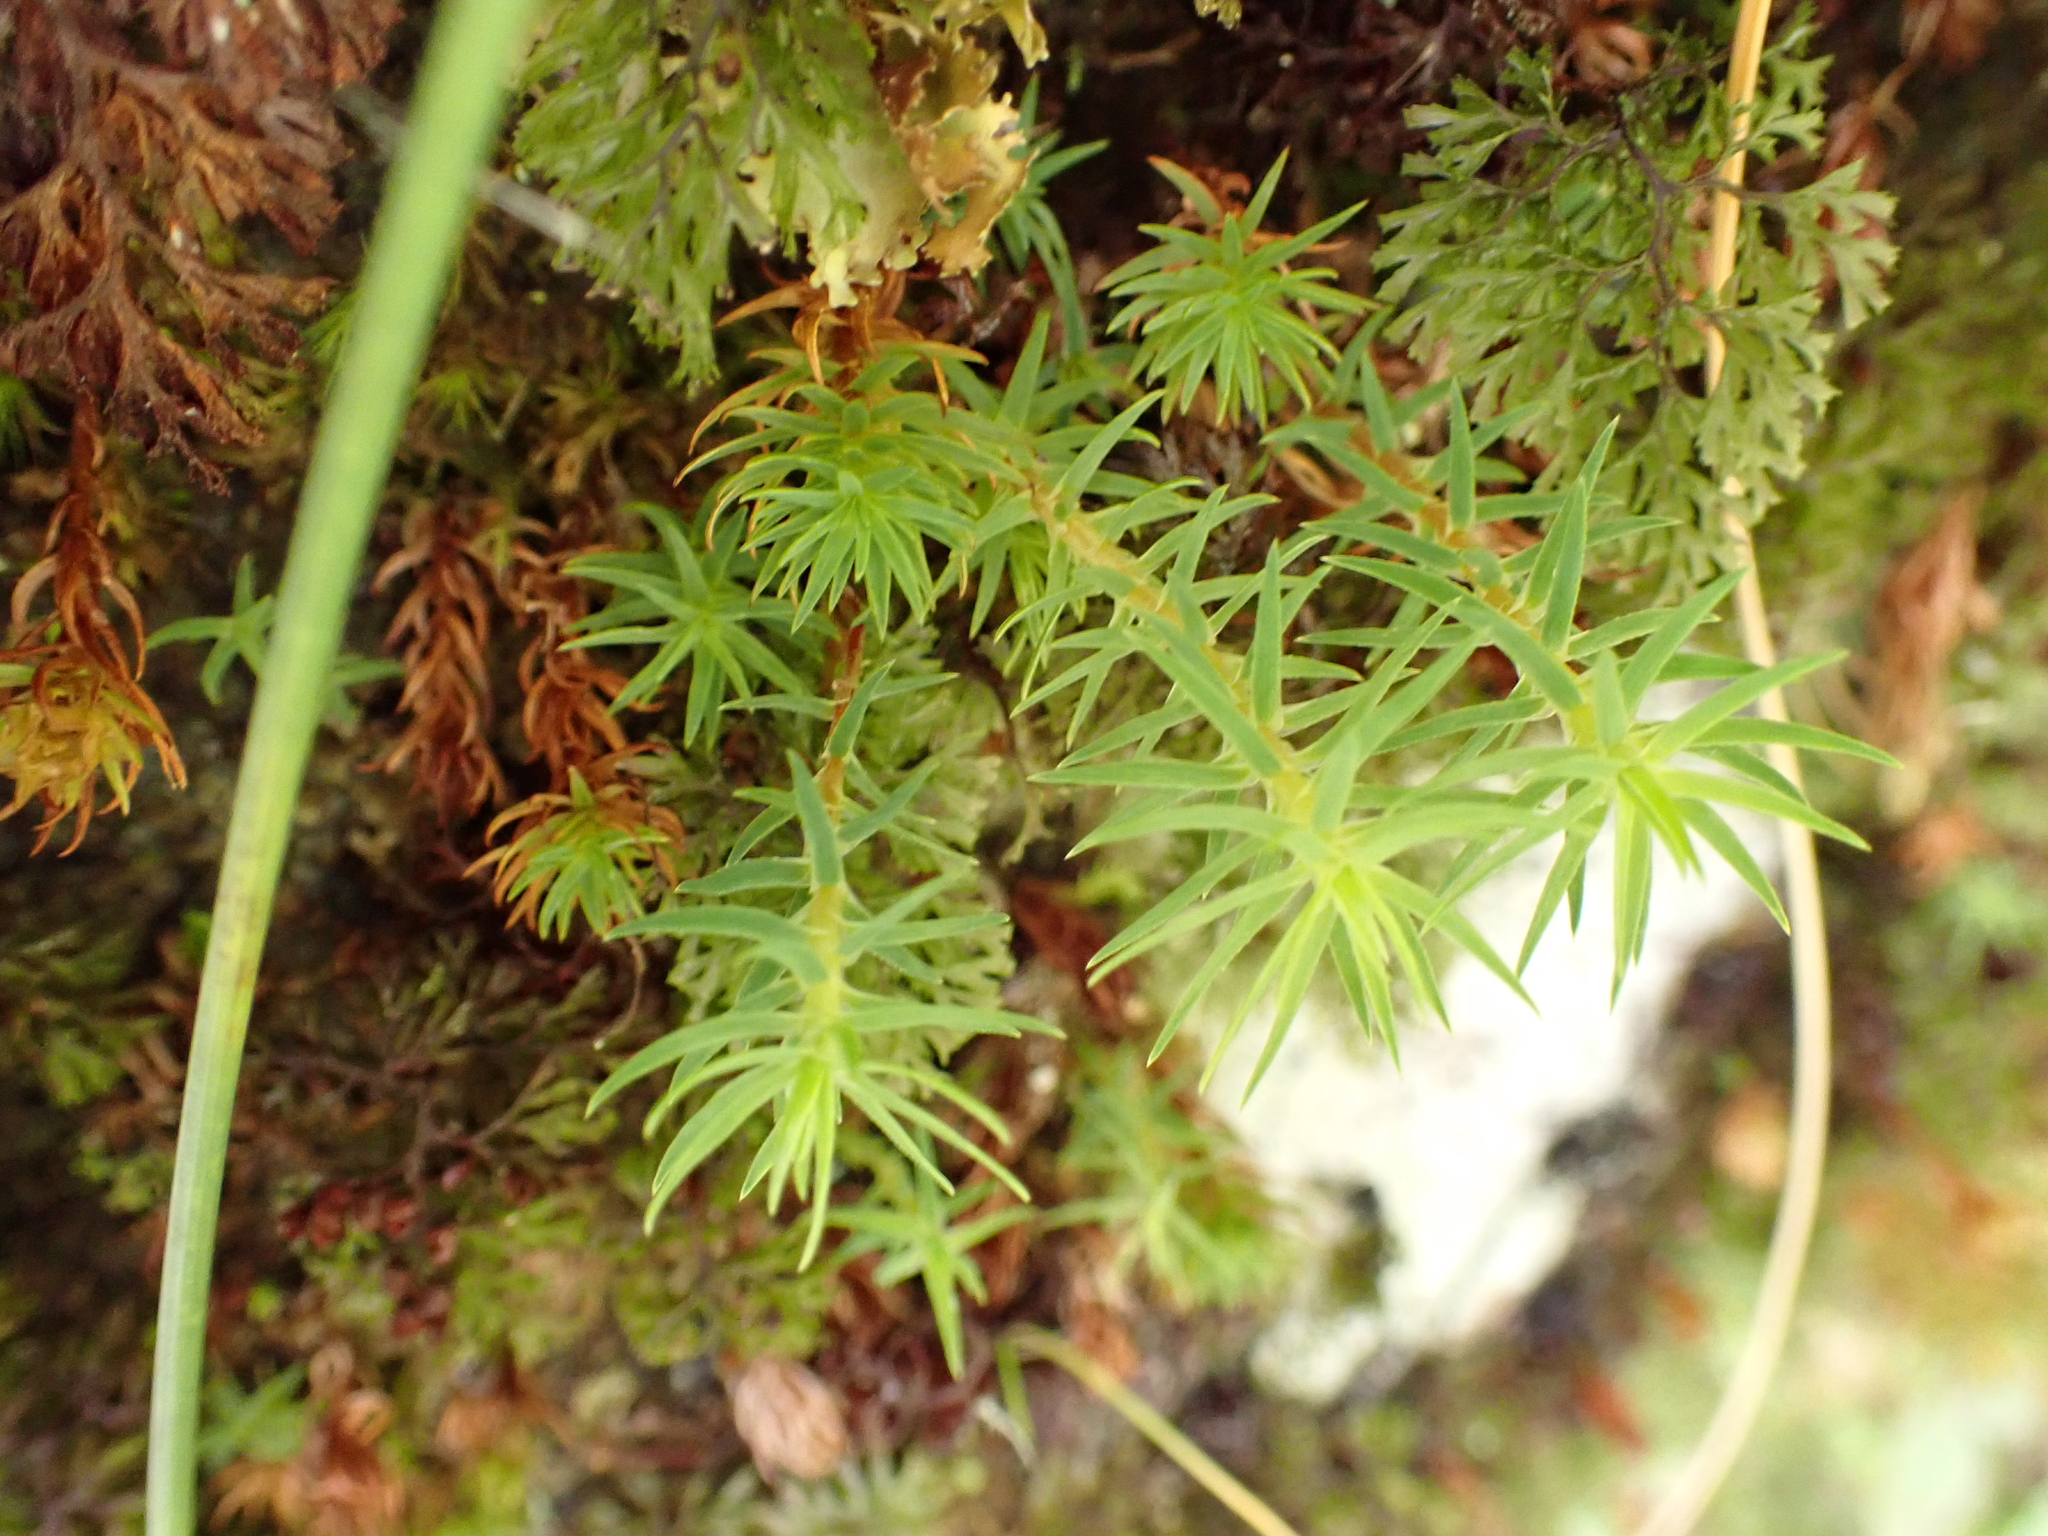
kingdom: Plantae
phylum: Bryophyta
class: Polytrichopsida
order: Polytrichales
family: Polytrichaceae
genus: Polytrichadelphus
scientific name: Polytrichadelphus magellanicus
